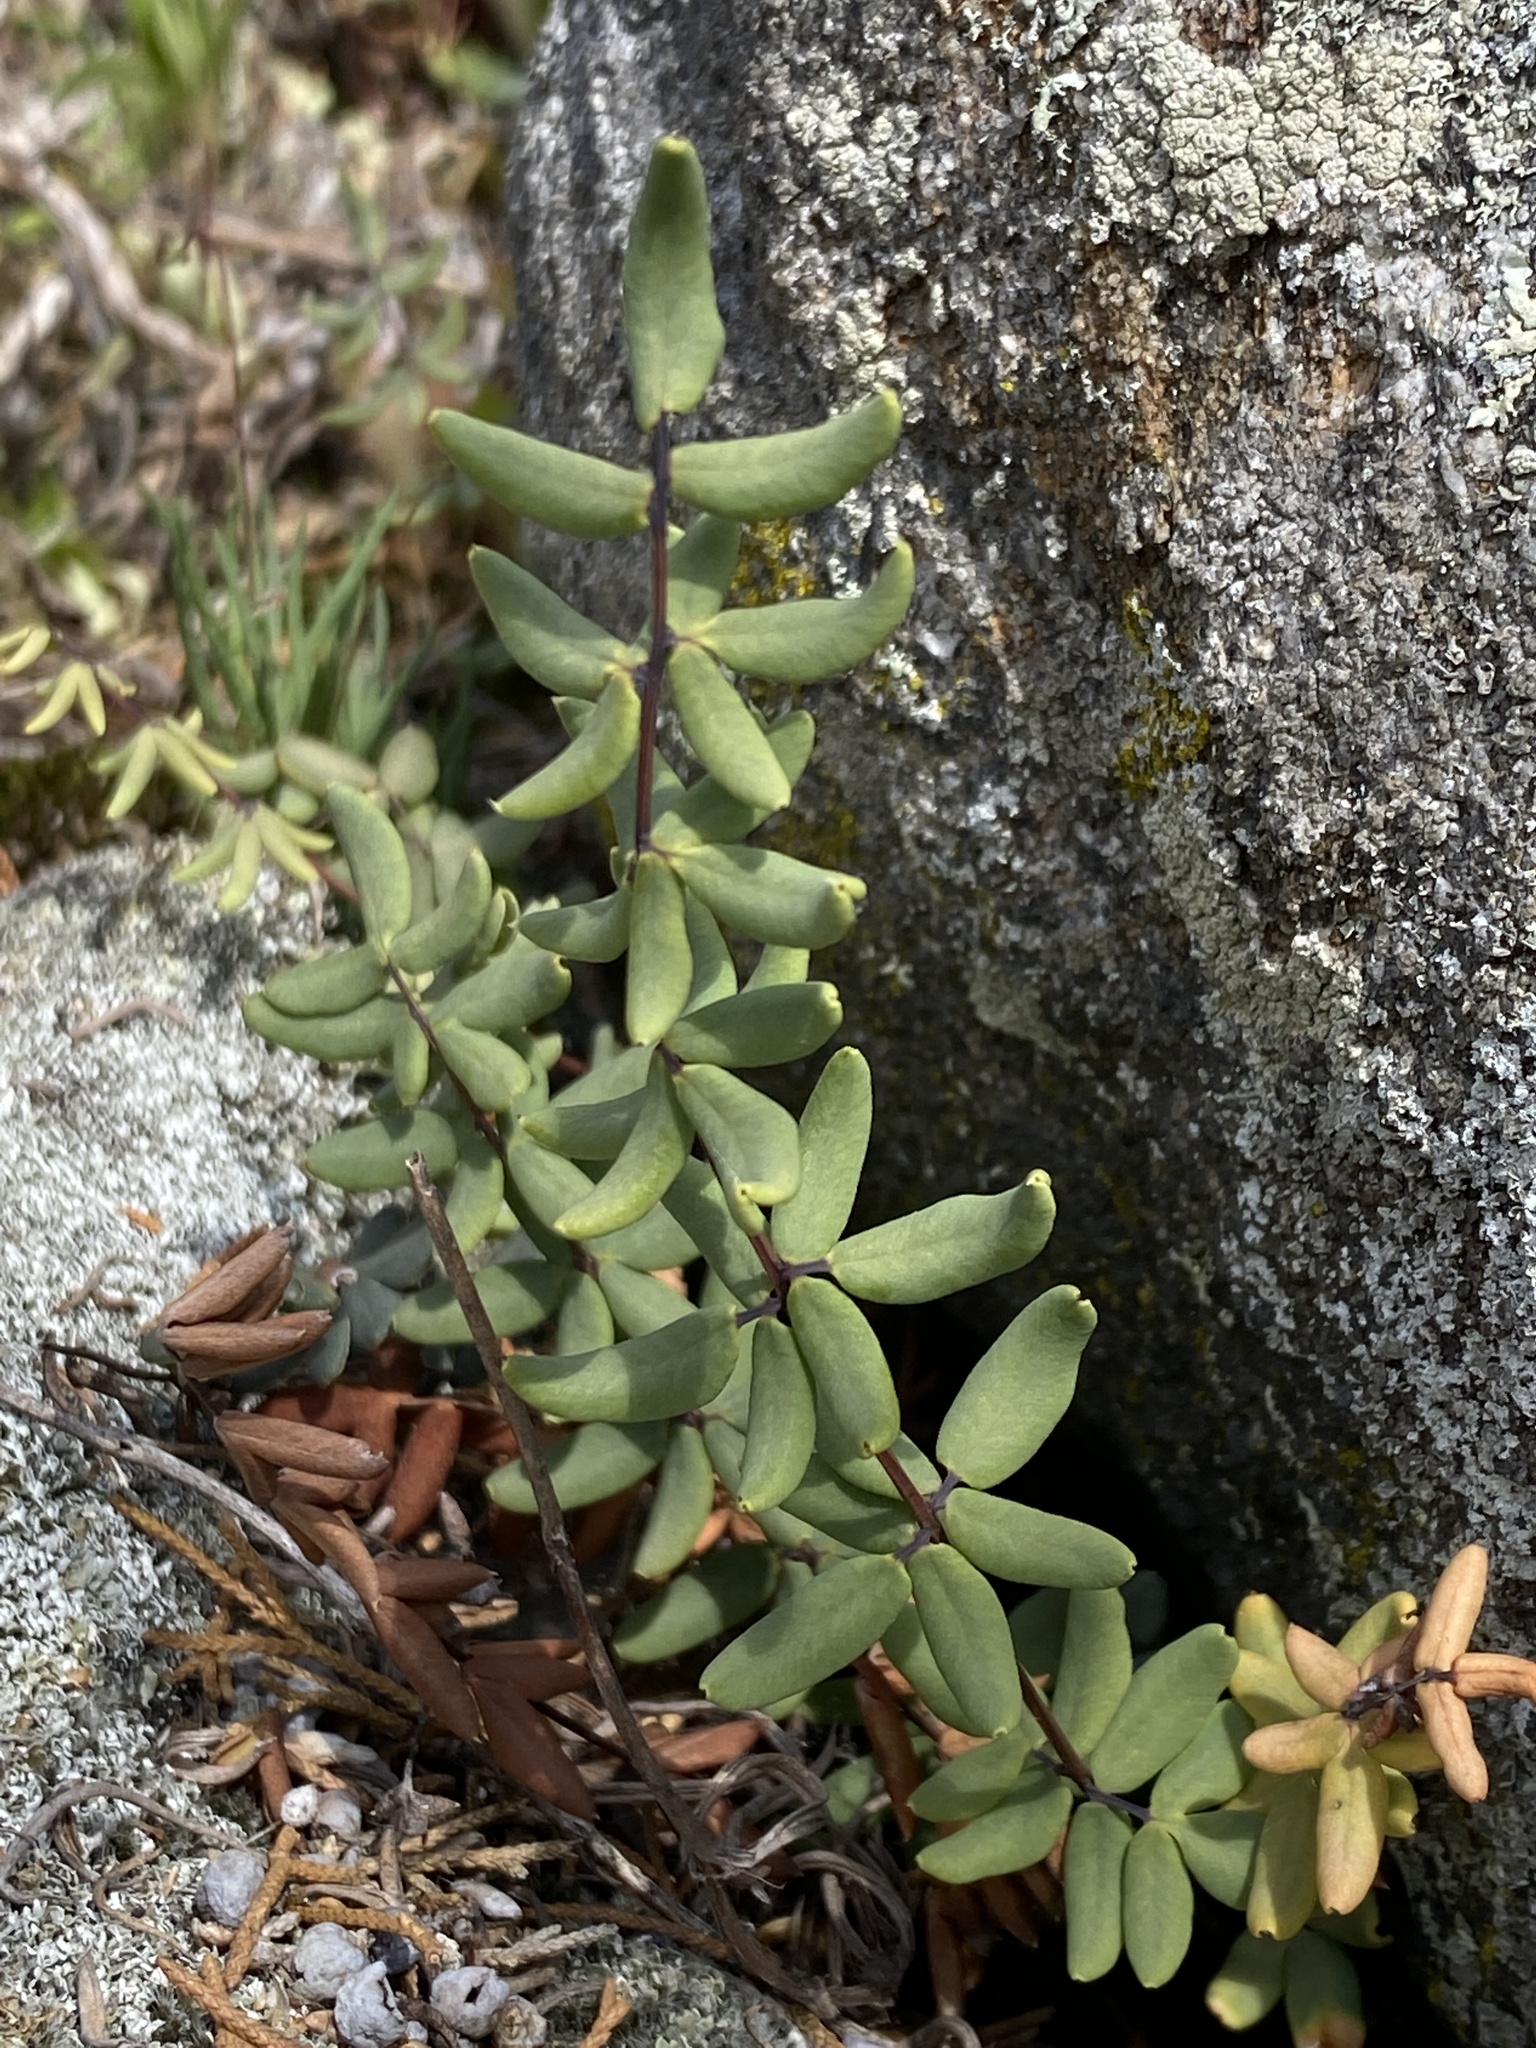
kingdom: Plantae
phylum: Tracheophyta
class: Polypodiopsida
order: Polypodiales
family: Pteridaceae
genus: Pellaea
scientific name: Pellaea wrightiana
